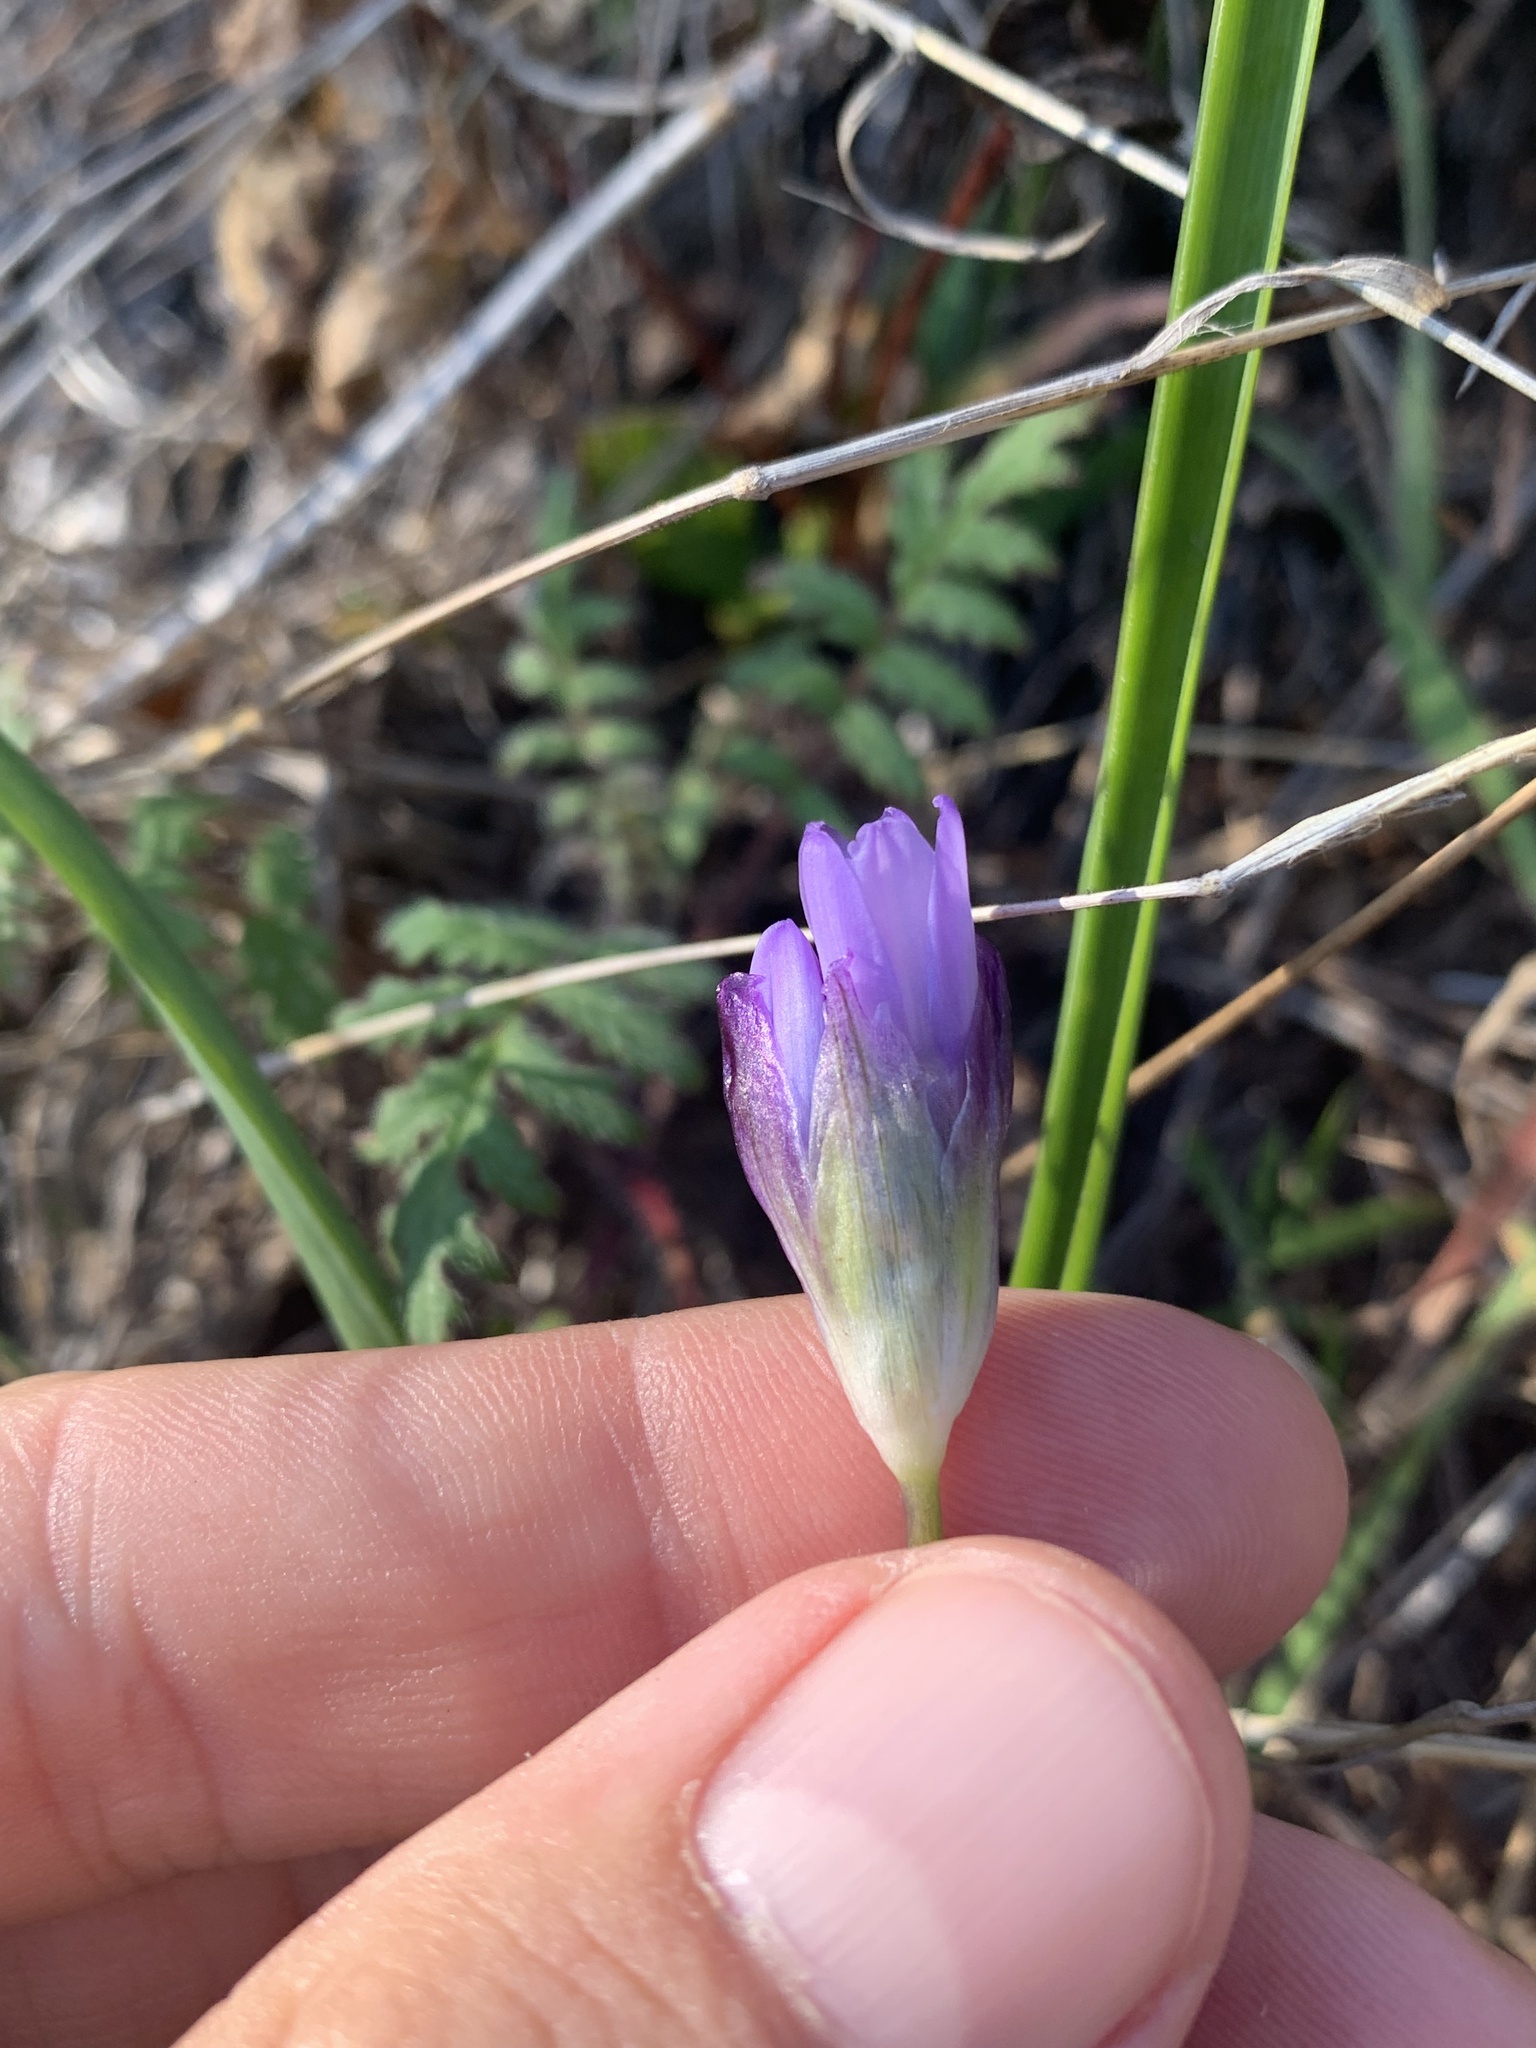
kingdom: Plantae
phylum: Tracheophyta
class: Liliopsida
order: Asparagales
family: Asparagaceae
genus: Dipterostemon
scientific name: Dipterostemon capitatus
